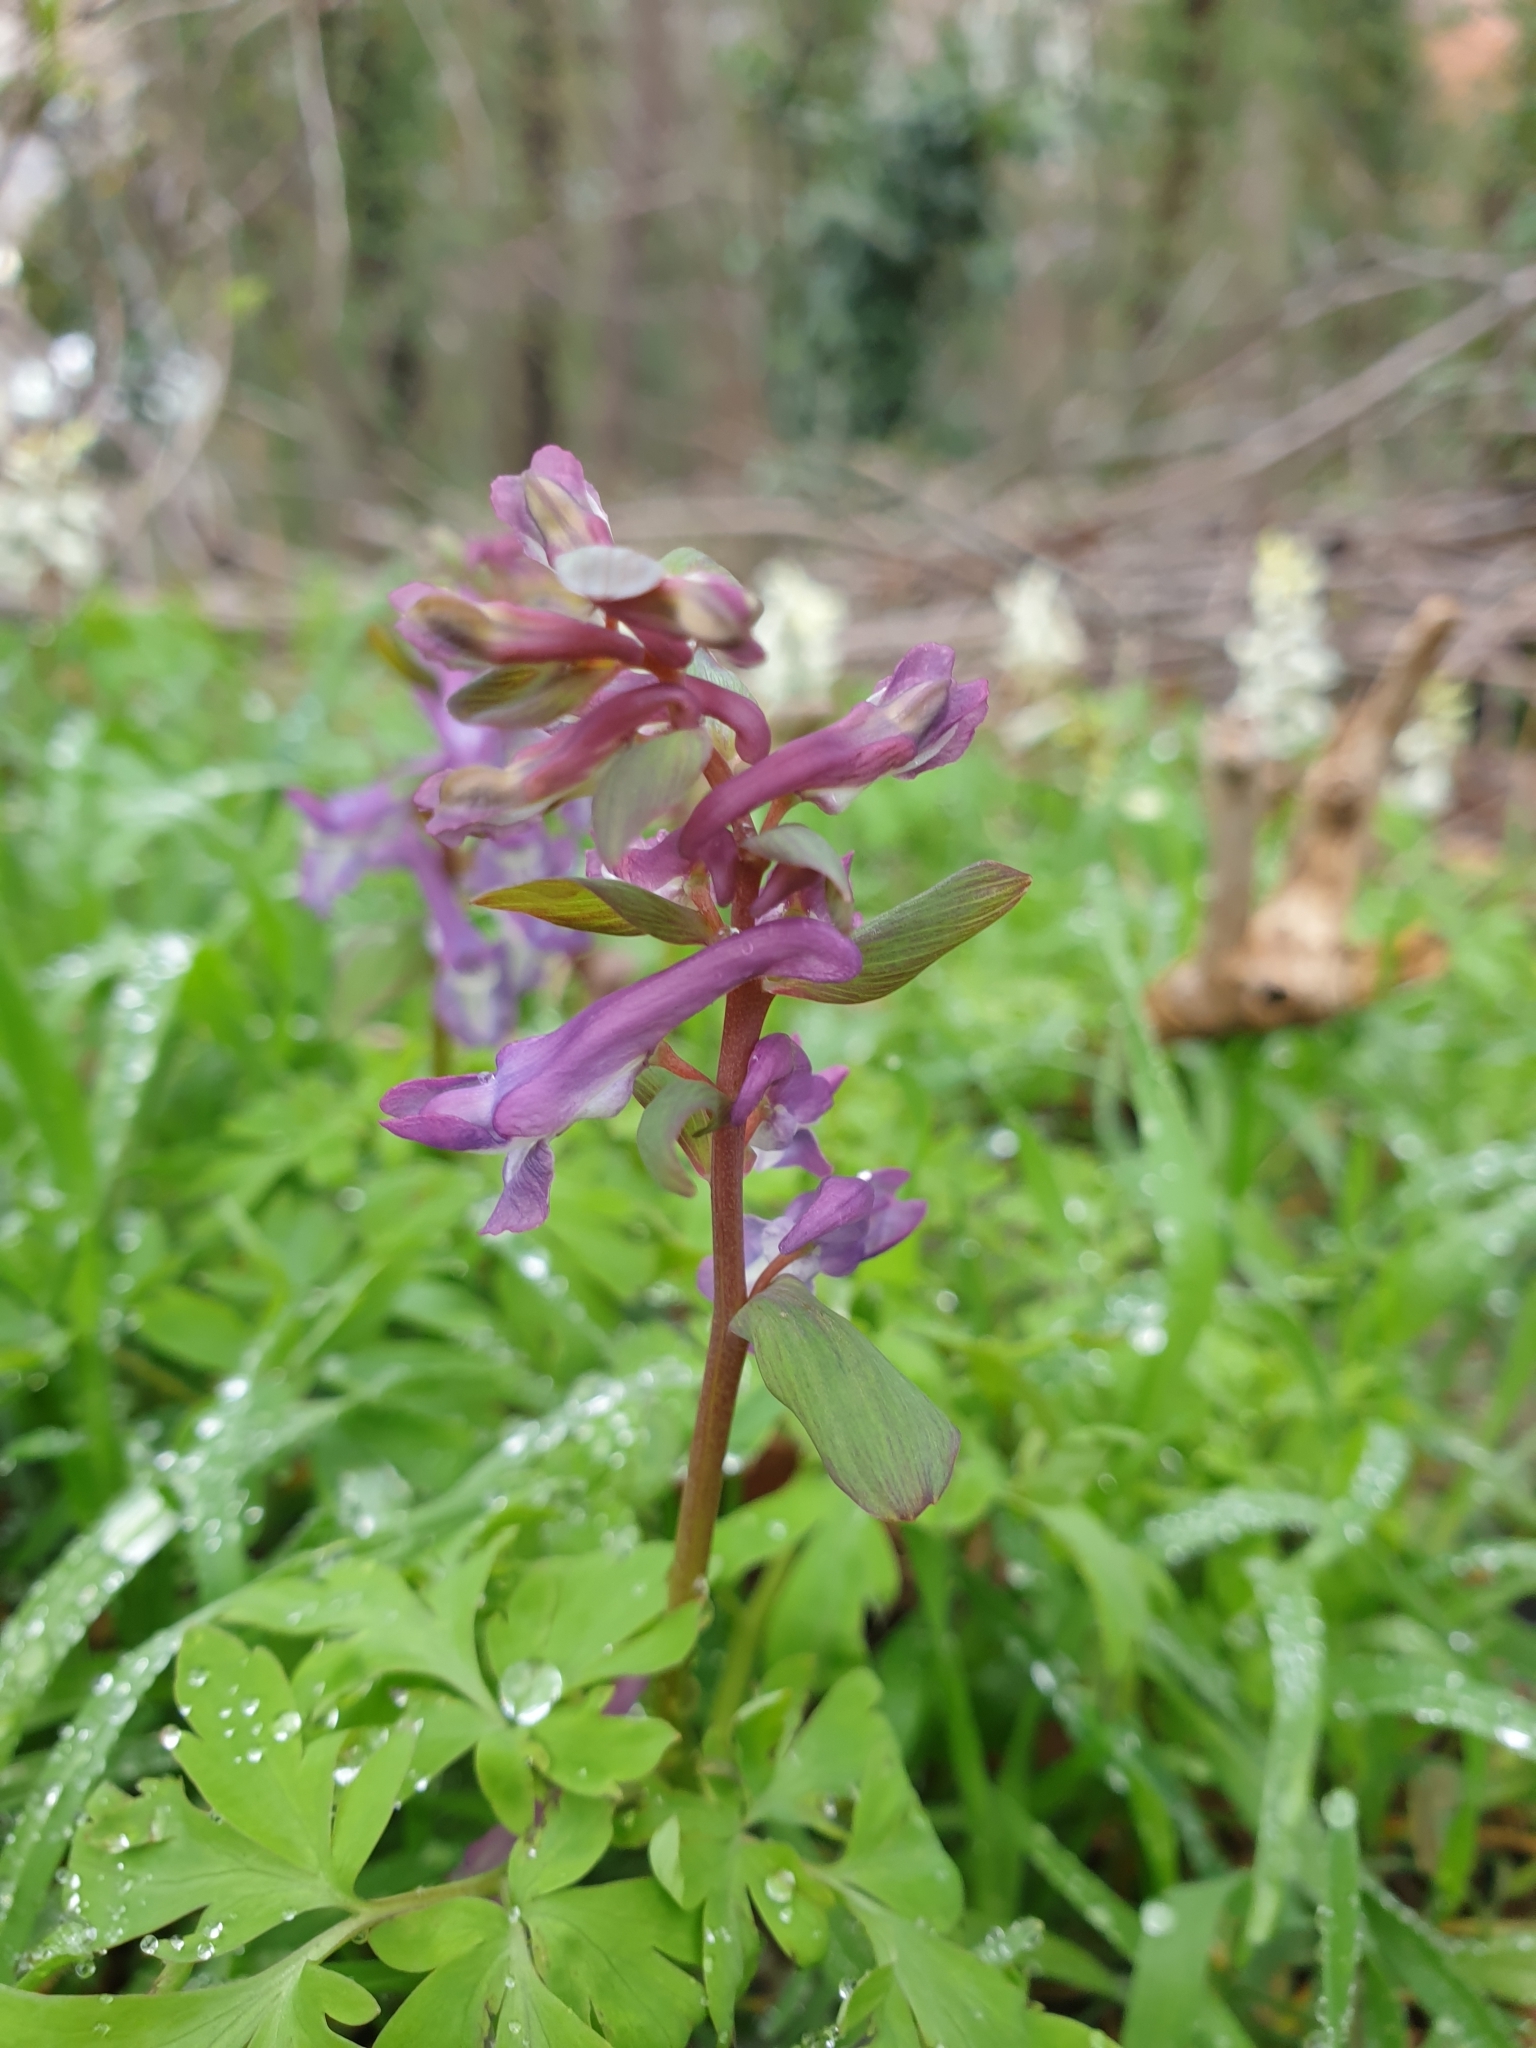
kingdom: Plantae
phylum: Tracheophyta
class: Magnoliopsida
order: Ranunculales
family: Papaveraceae
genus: Corydalis
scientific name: Corydalis cava
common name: Hollowroot
